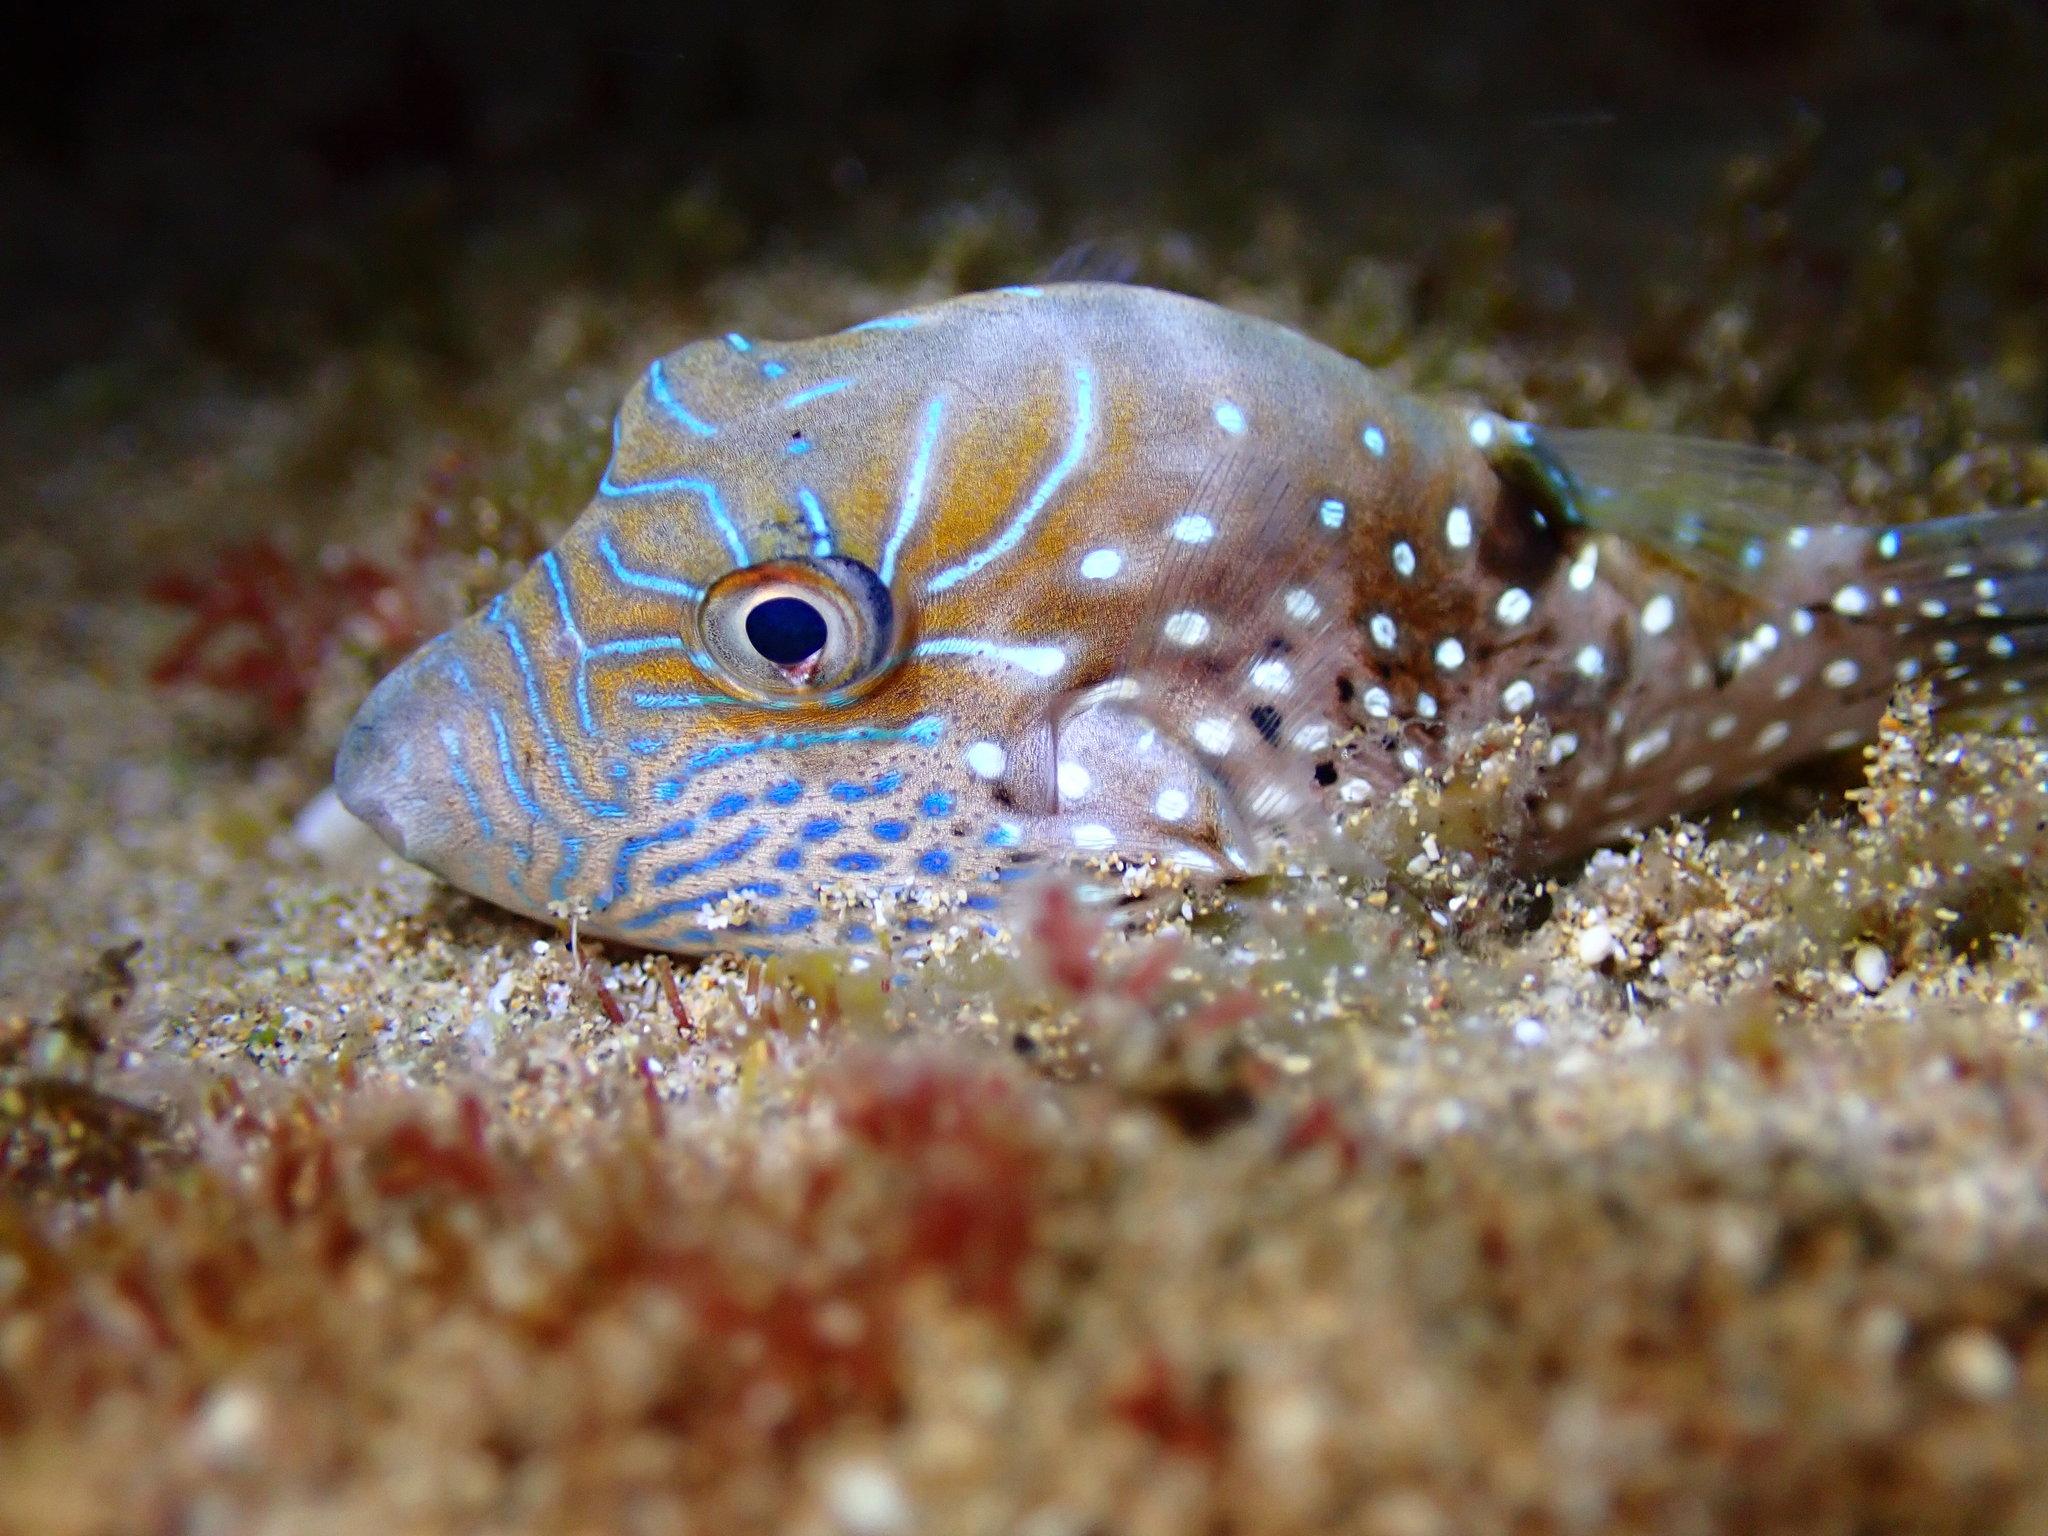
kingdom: Animalia
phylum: Chordata
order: Tetraodontiformes
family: Tetraodontidae
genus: Canthigaster
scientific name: Canthigaster amboinensis
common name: Ambon pufferfish
